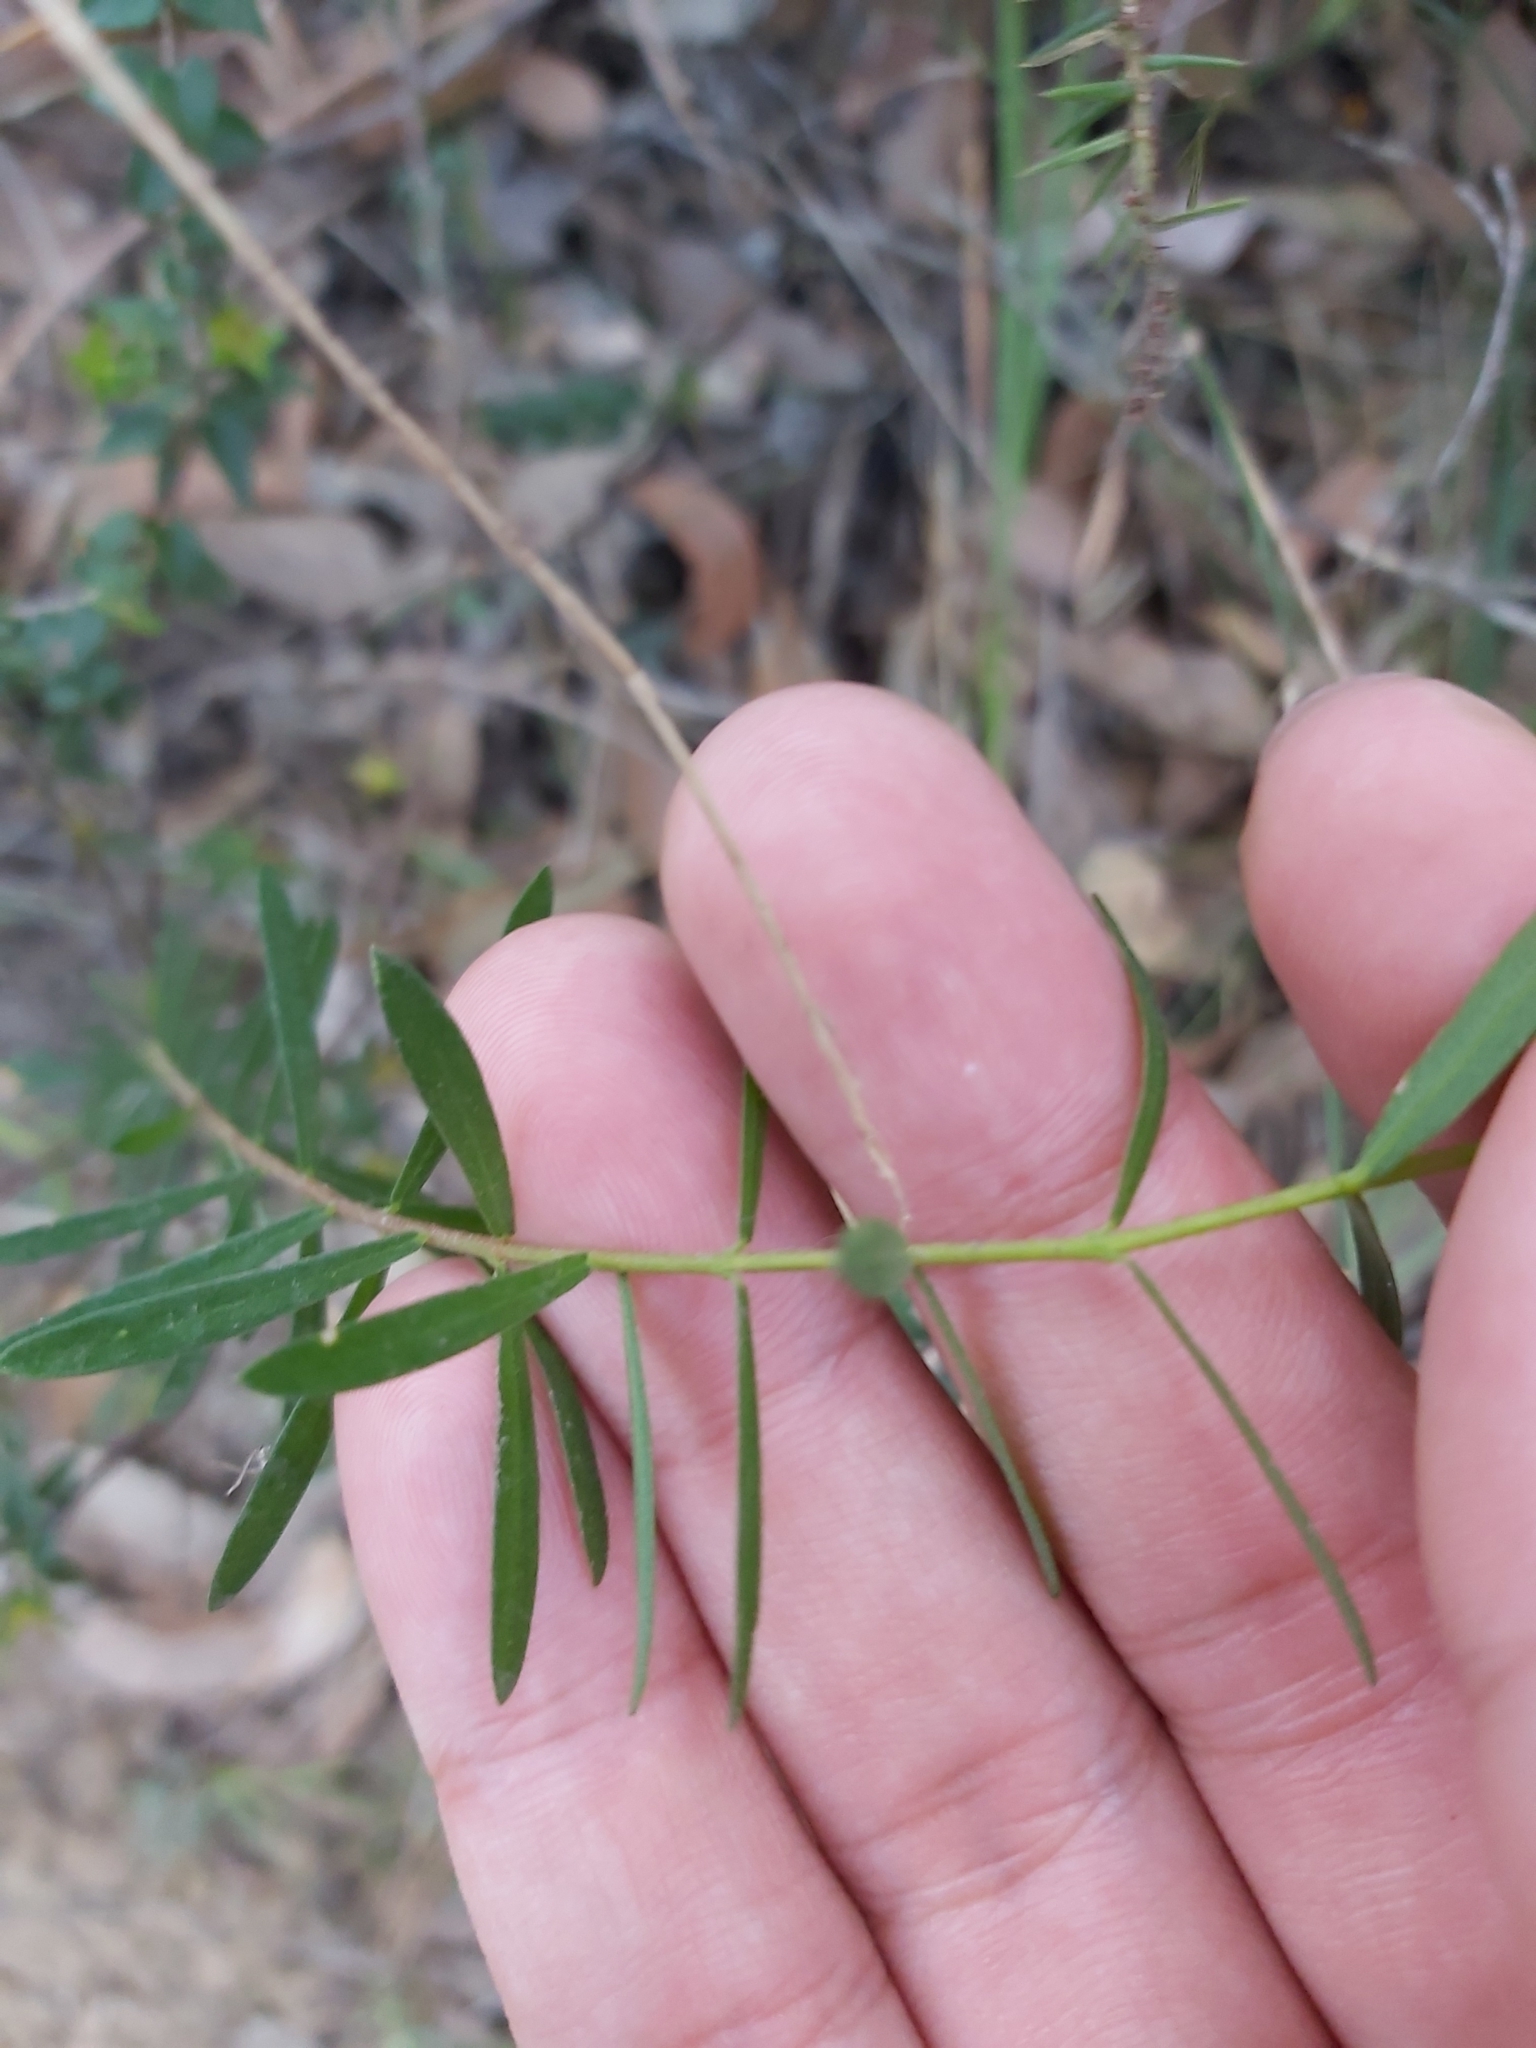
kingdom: Plantae
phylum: Tracheophyta
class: Magnoliopsida
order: Malvales
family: Thymelaeaceae
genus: Pimelea
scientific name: Pimelea linifolia
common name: Queen-of-the-bush
